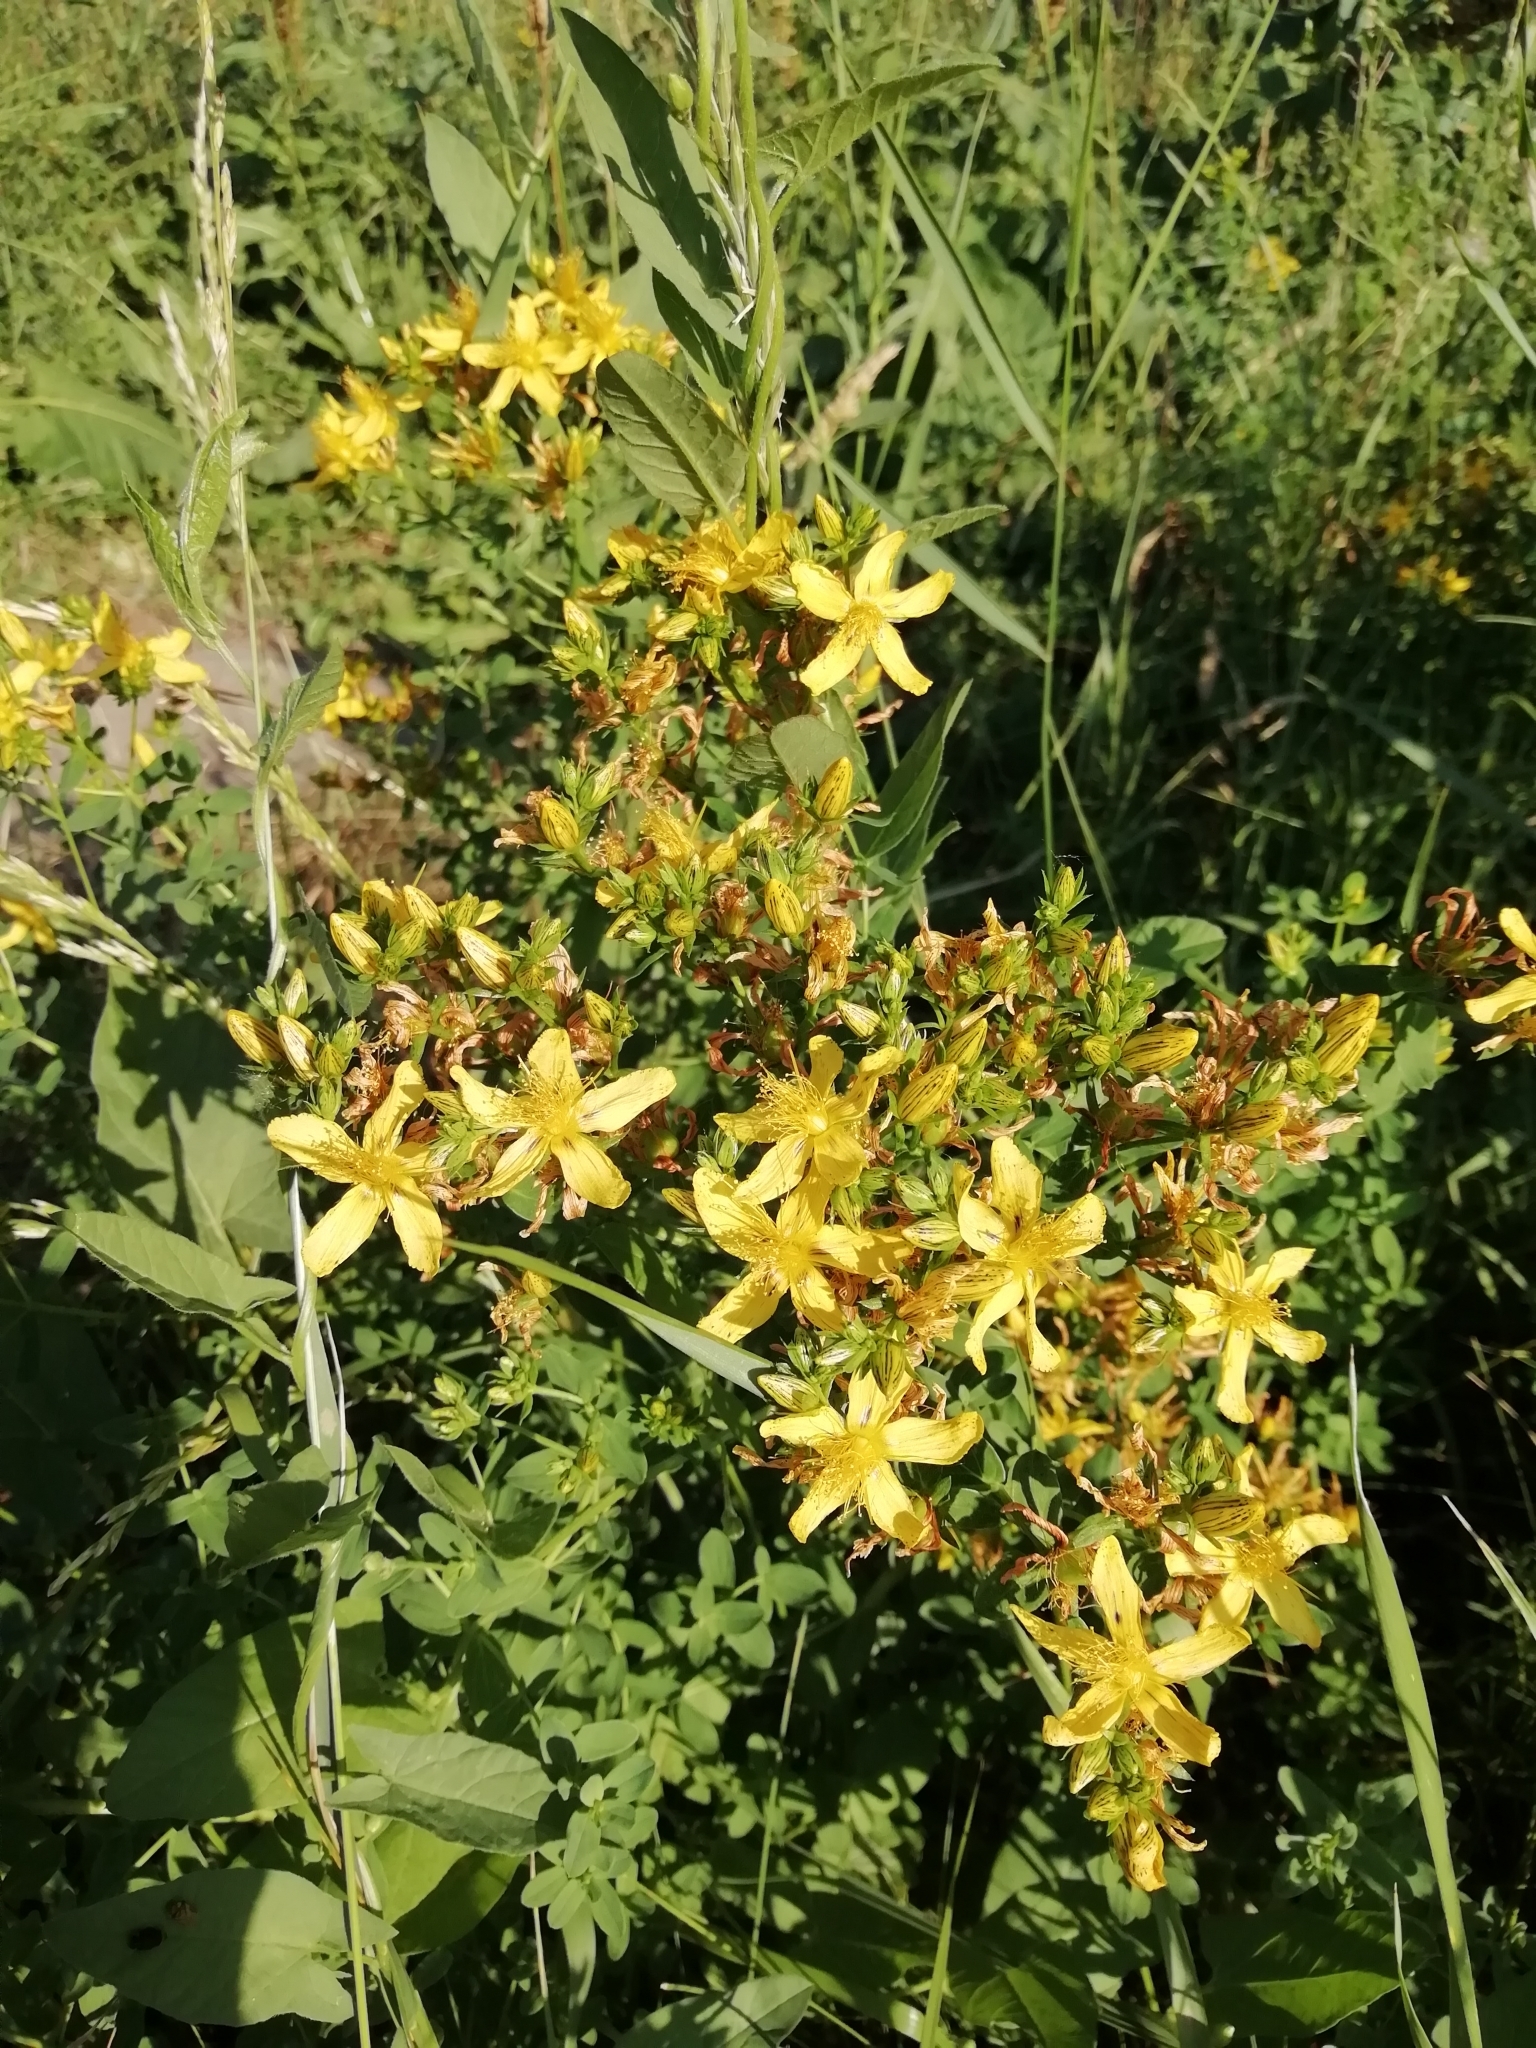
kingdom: Plantae
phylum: Tracheophyta
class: Magnoliopsida
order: Malpighiales
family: Hypericaceae
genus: Hypericum
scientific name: Hypericum perforatum
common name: Common st. johnswort
